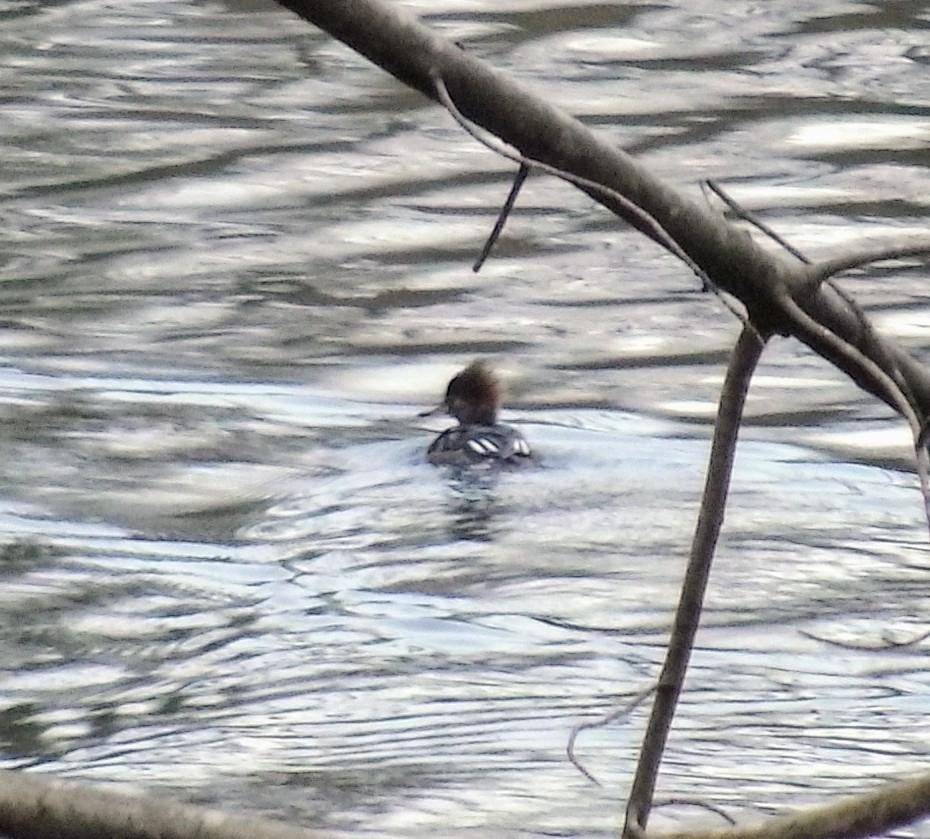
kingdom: Animalia
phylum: Chordata
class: Aves
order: Anseriformes
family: Anatidae
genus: Lophodytes
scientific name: Lophodytes cucullatus
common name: Hooded merganser
